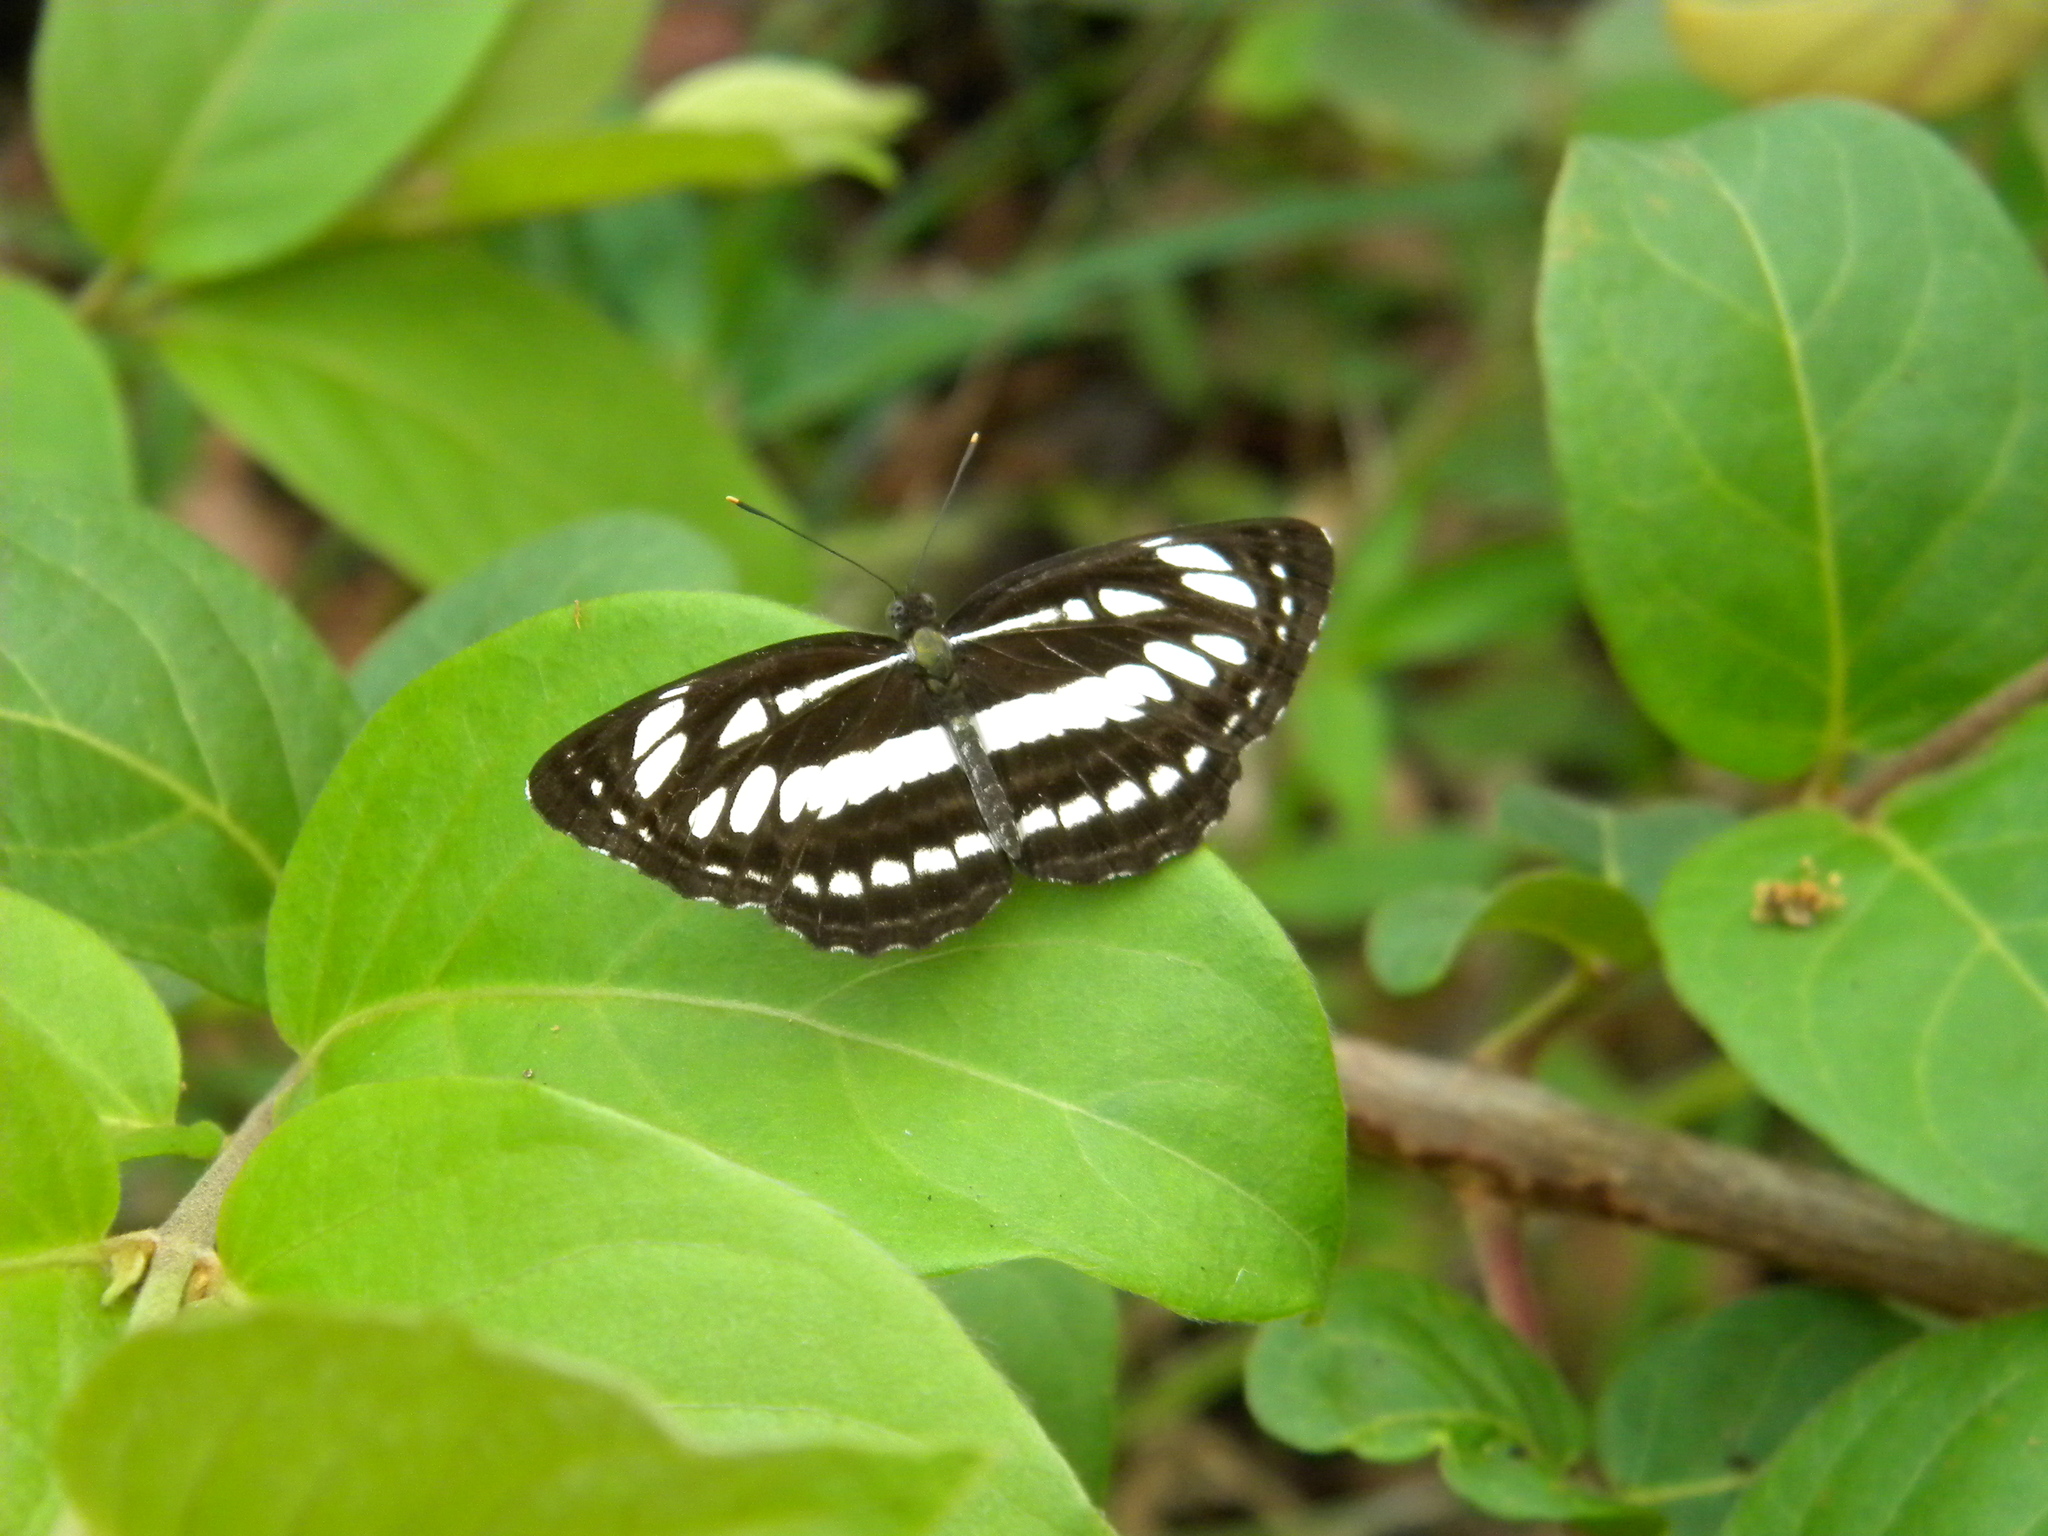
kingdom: Animalia
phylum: Arthropoda
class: Insecta
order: Lepidoptera
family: Nymphalidae
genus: Neptis
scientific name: Neptis hylas
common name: Common sailer
